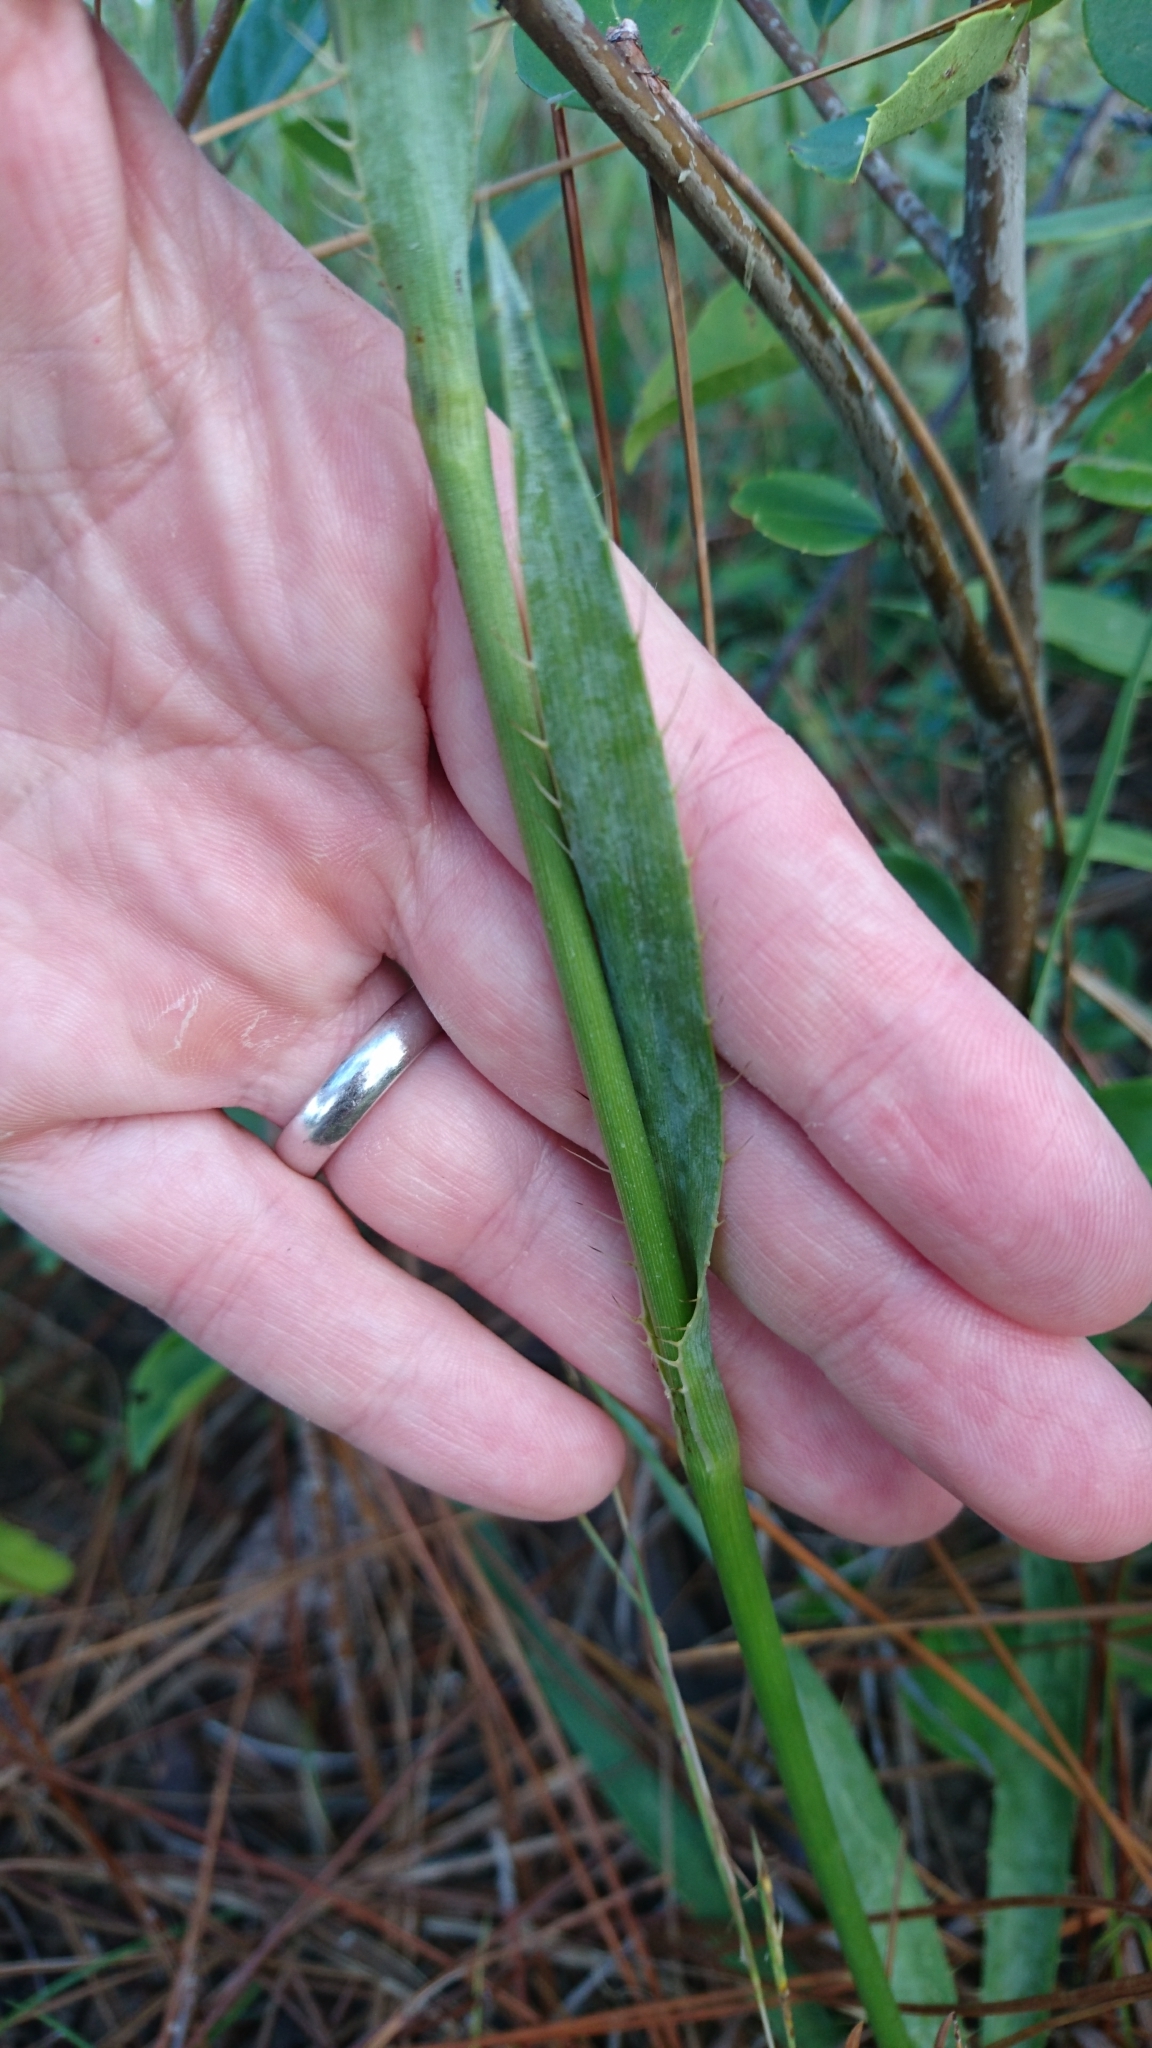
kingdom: Plantae
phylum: Tracheophyta
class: Magnoliopsida
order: Apiales
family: Apiaceae
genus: Eryngium
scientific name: Eryngium yuccifolium
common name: Button eryngo
